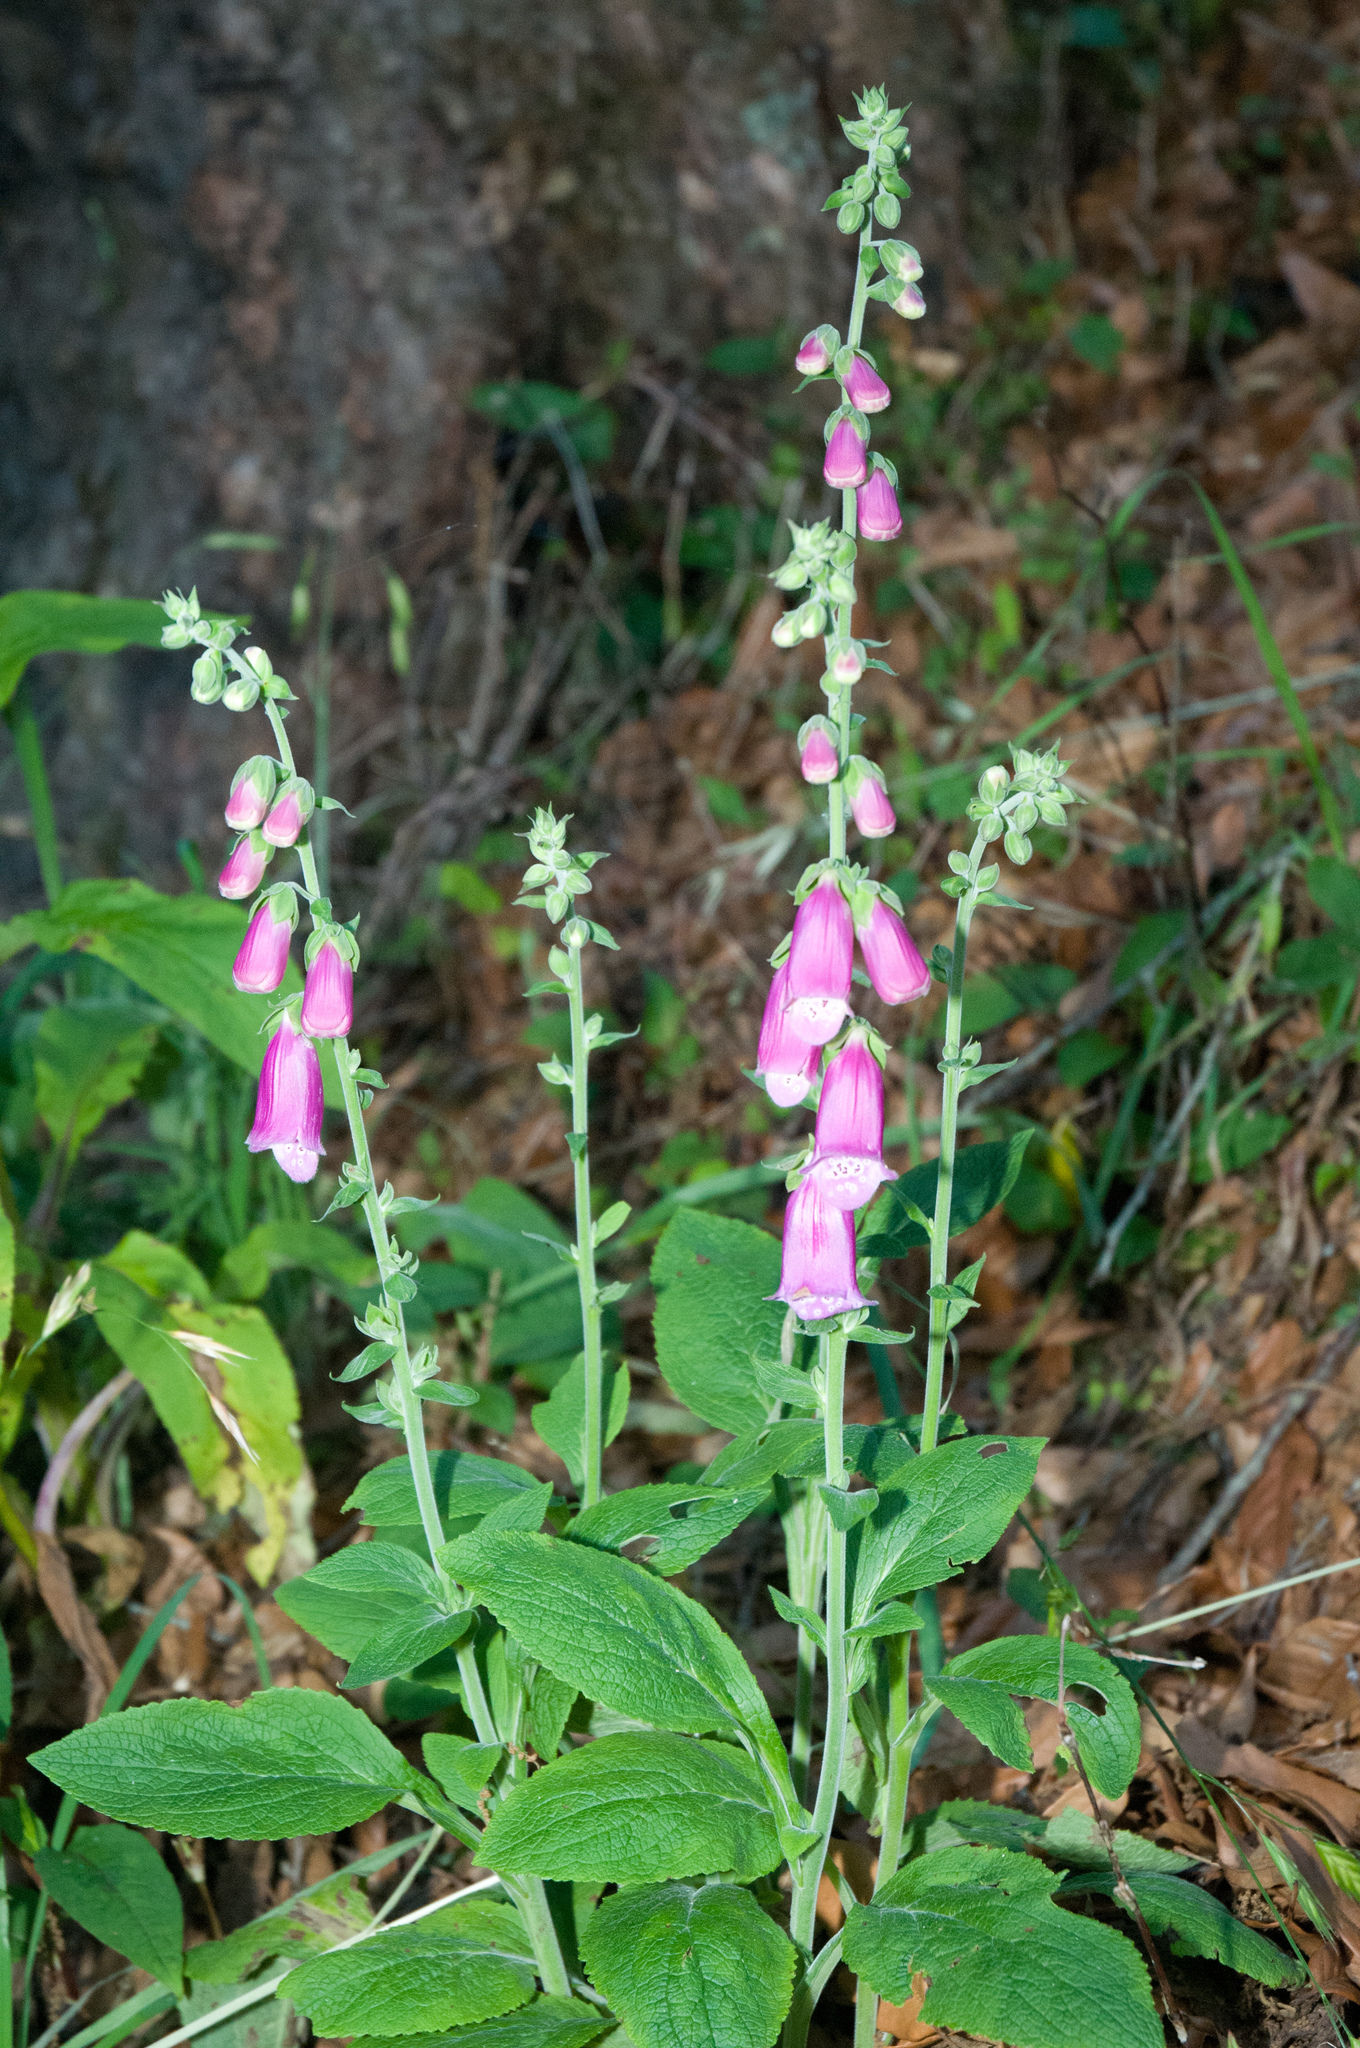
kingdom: Plantae
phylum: Tracheophyta
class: Magnoliopsida
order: Lamiales
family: Plantaginaceae
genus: Digitalis
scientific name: Digitalis purpurea
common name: Foxglove
